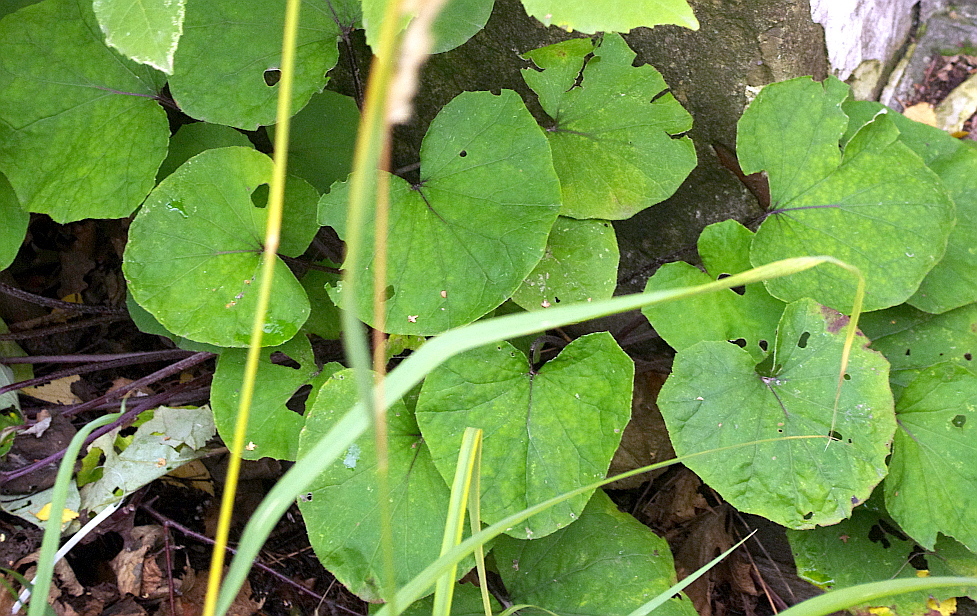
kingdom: Plantae
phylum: Tracheophyta
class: Magnoliopsida
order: Asterales
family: Asteraceae
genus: Tussilago
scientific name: Tussilago farfara
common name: Coltsfoot
